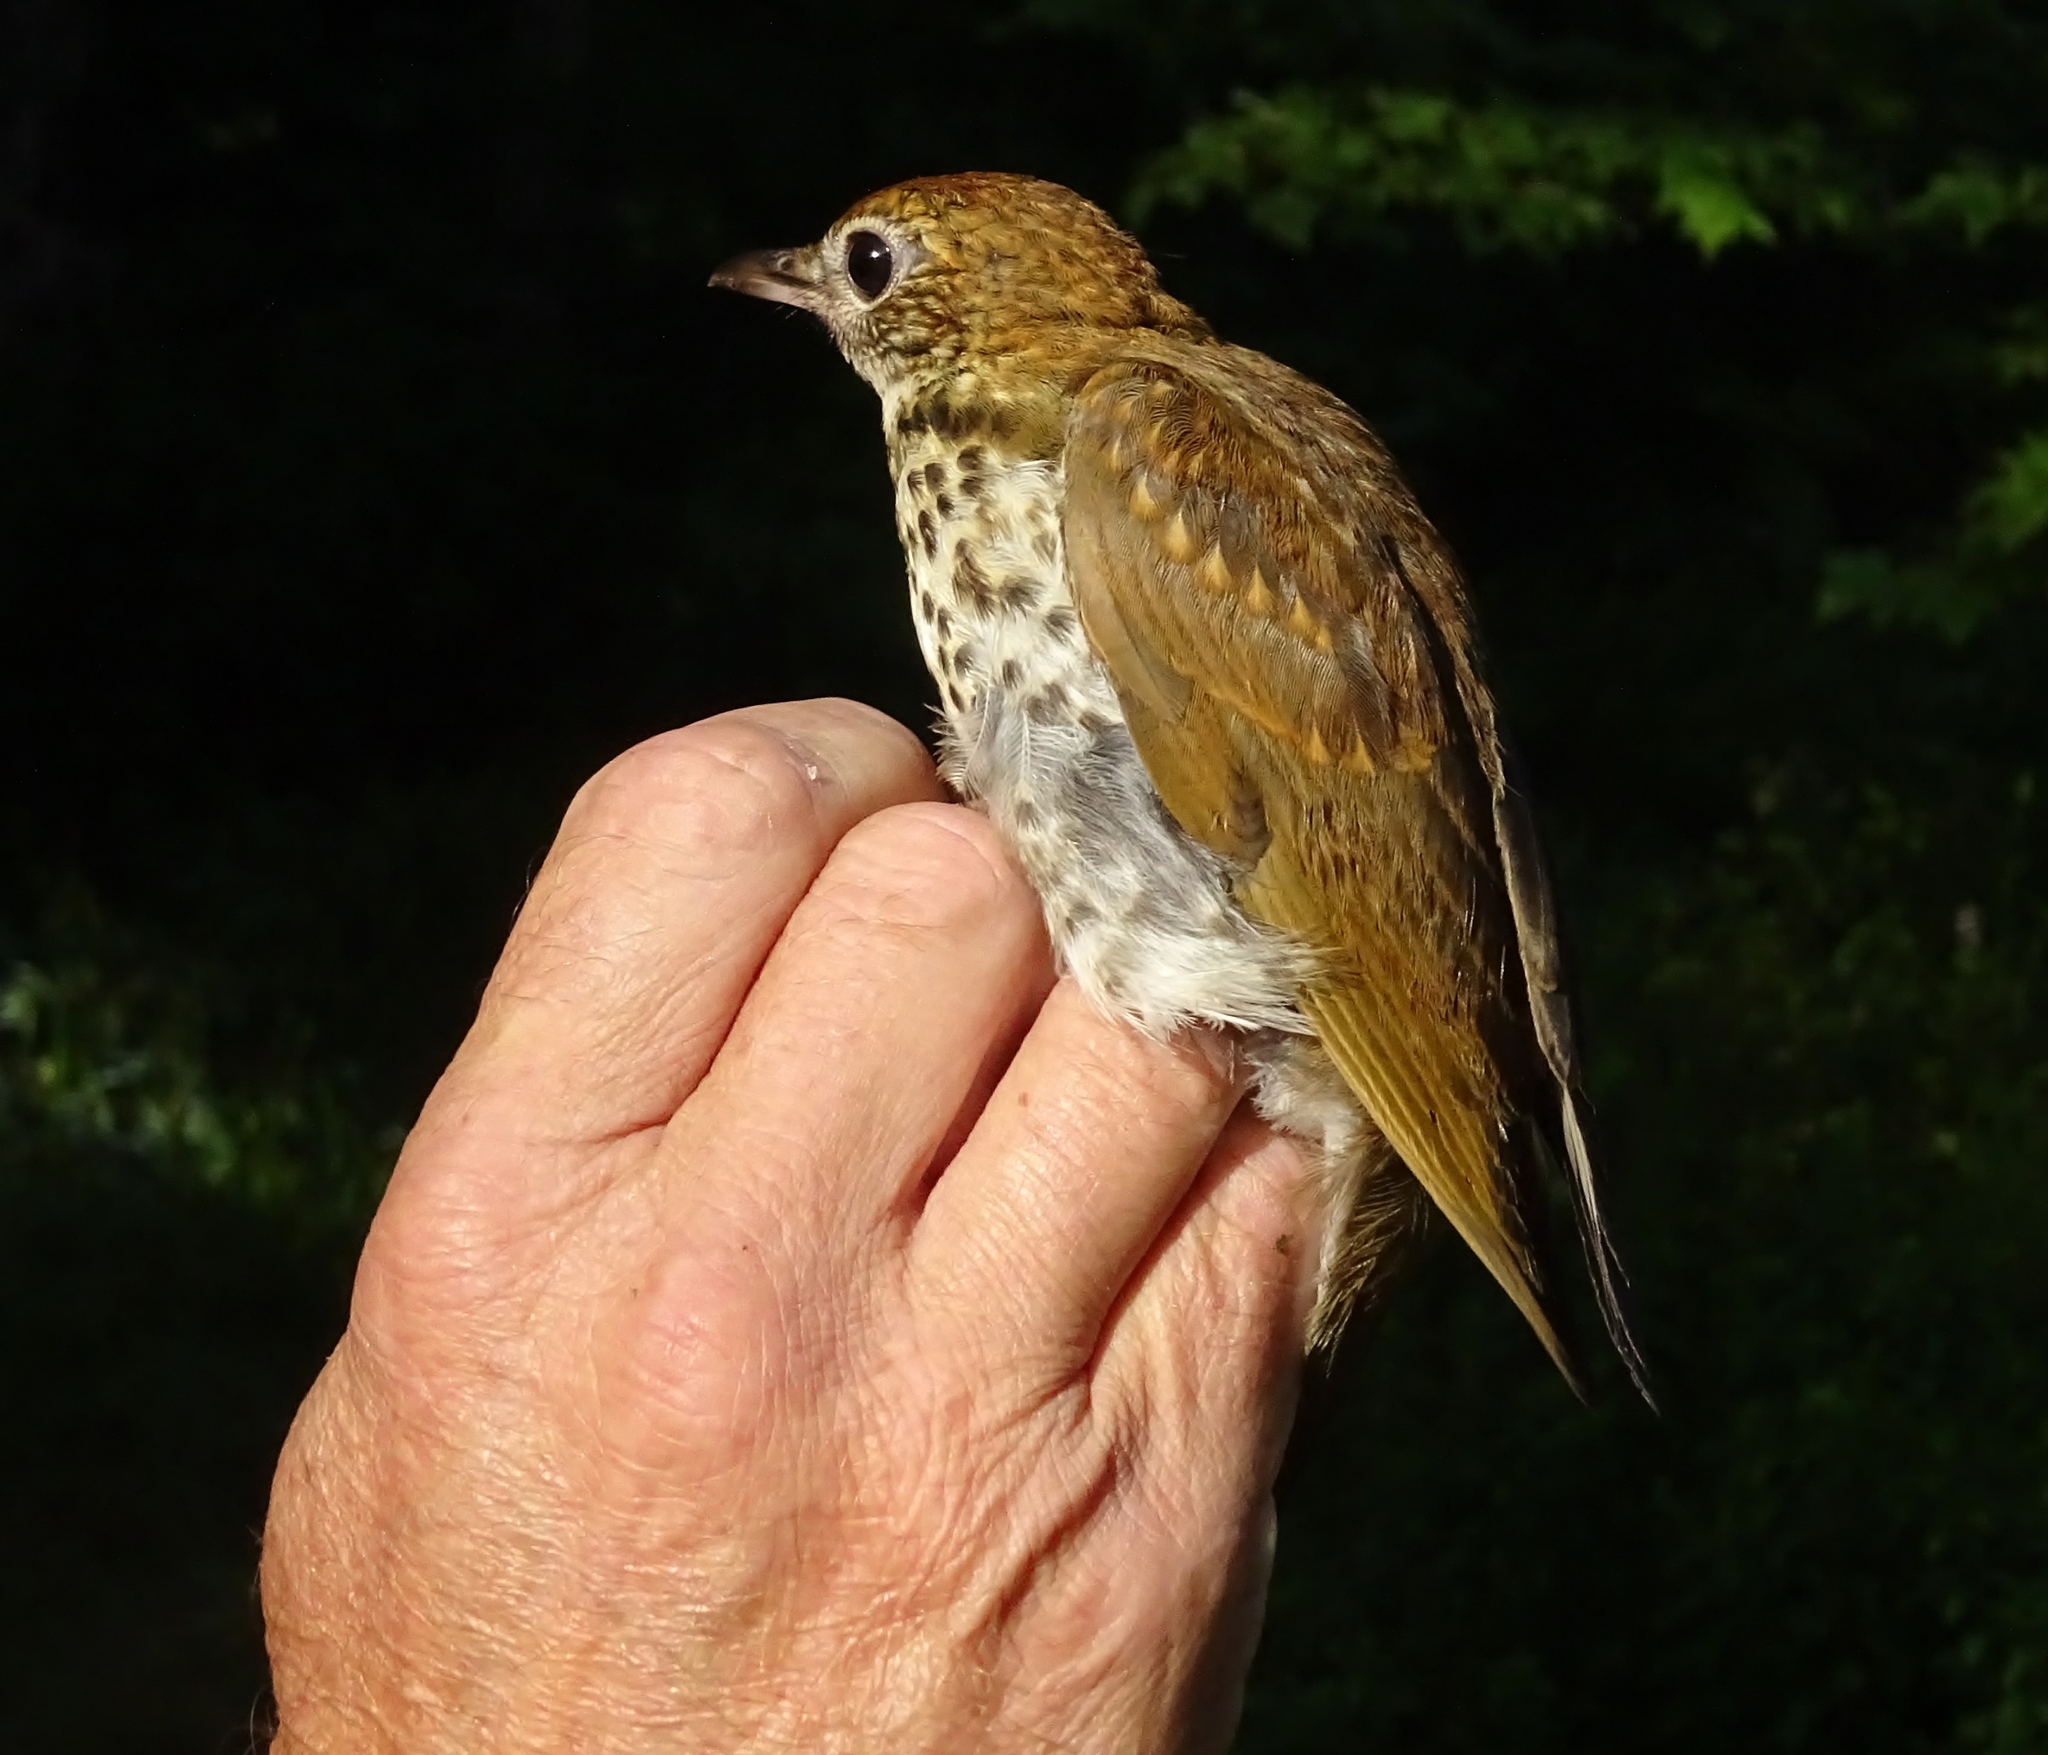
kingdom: Animalia
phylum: Chordata
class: Aves
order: Passeriformes
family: Turdidae
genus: Hylocichla
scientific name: Hylocichla mustelina
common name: Wood thrush
